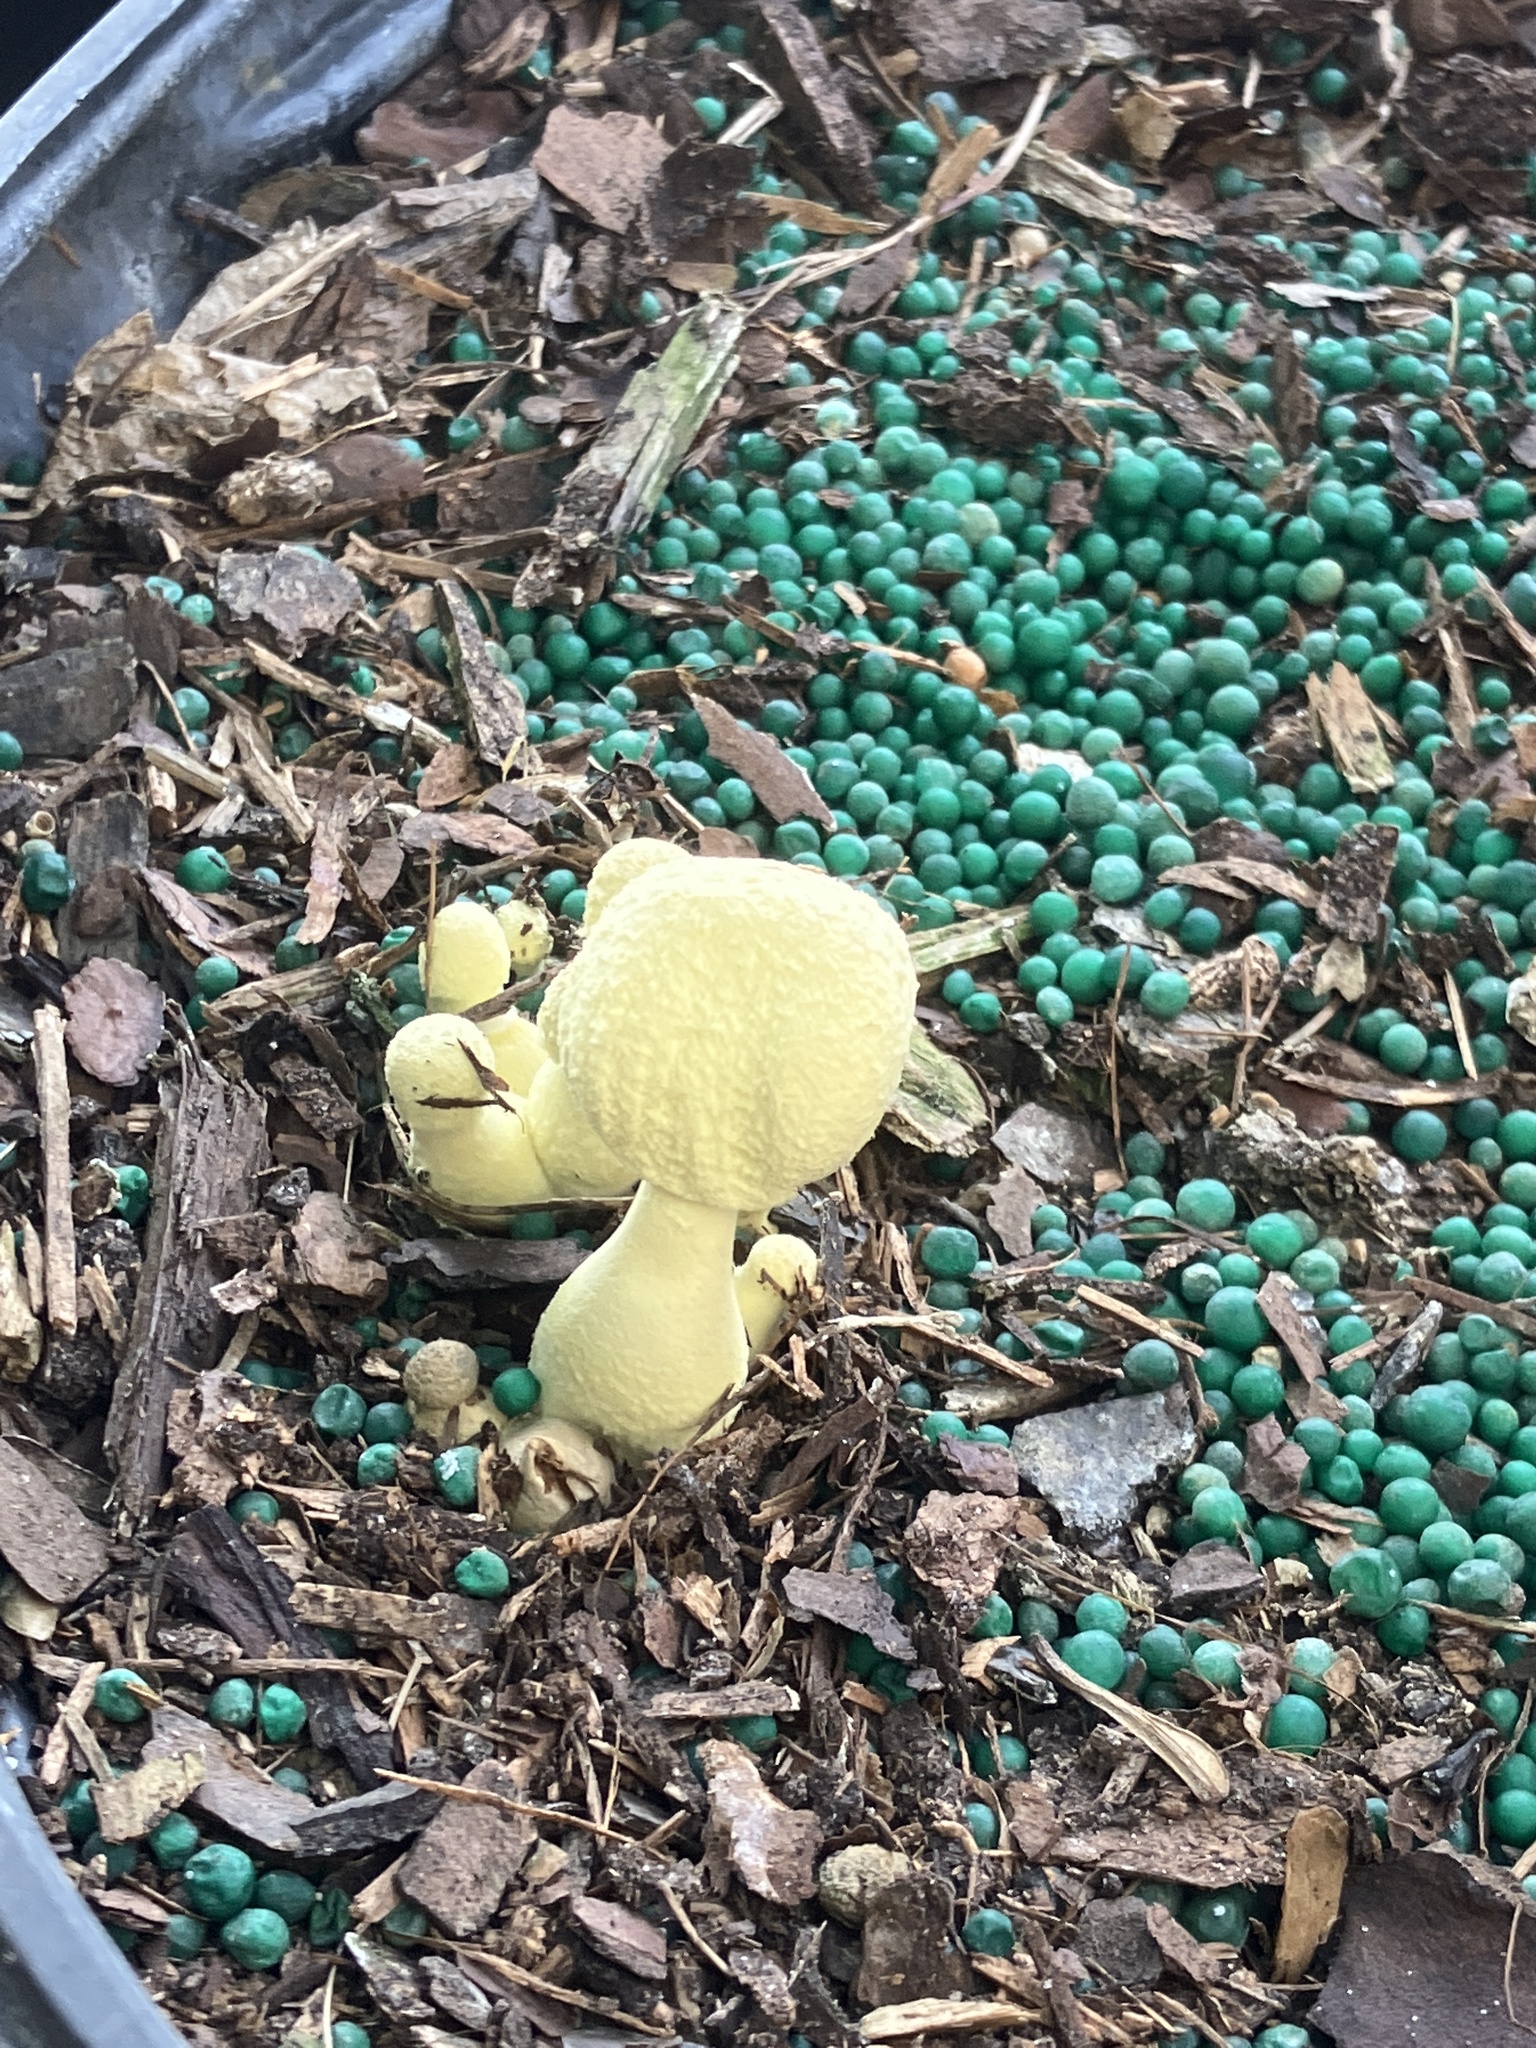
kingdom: Fungi
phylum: Basidiomycota
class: Agaricomycetes
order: Agaricales
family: Agaricaceae
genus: Leucocoprinus
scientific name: Leucocoprinus birnbaumii
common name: Plantpot dapperling
